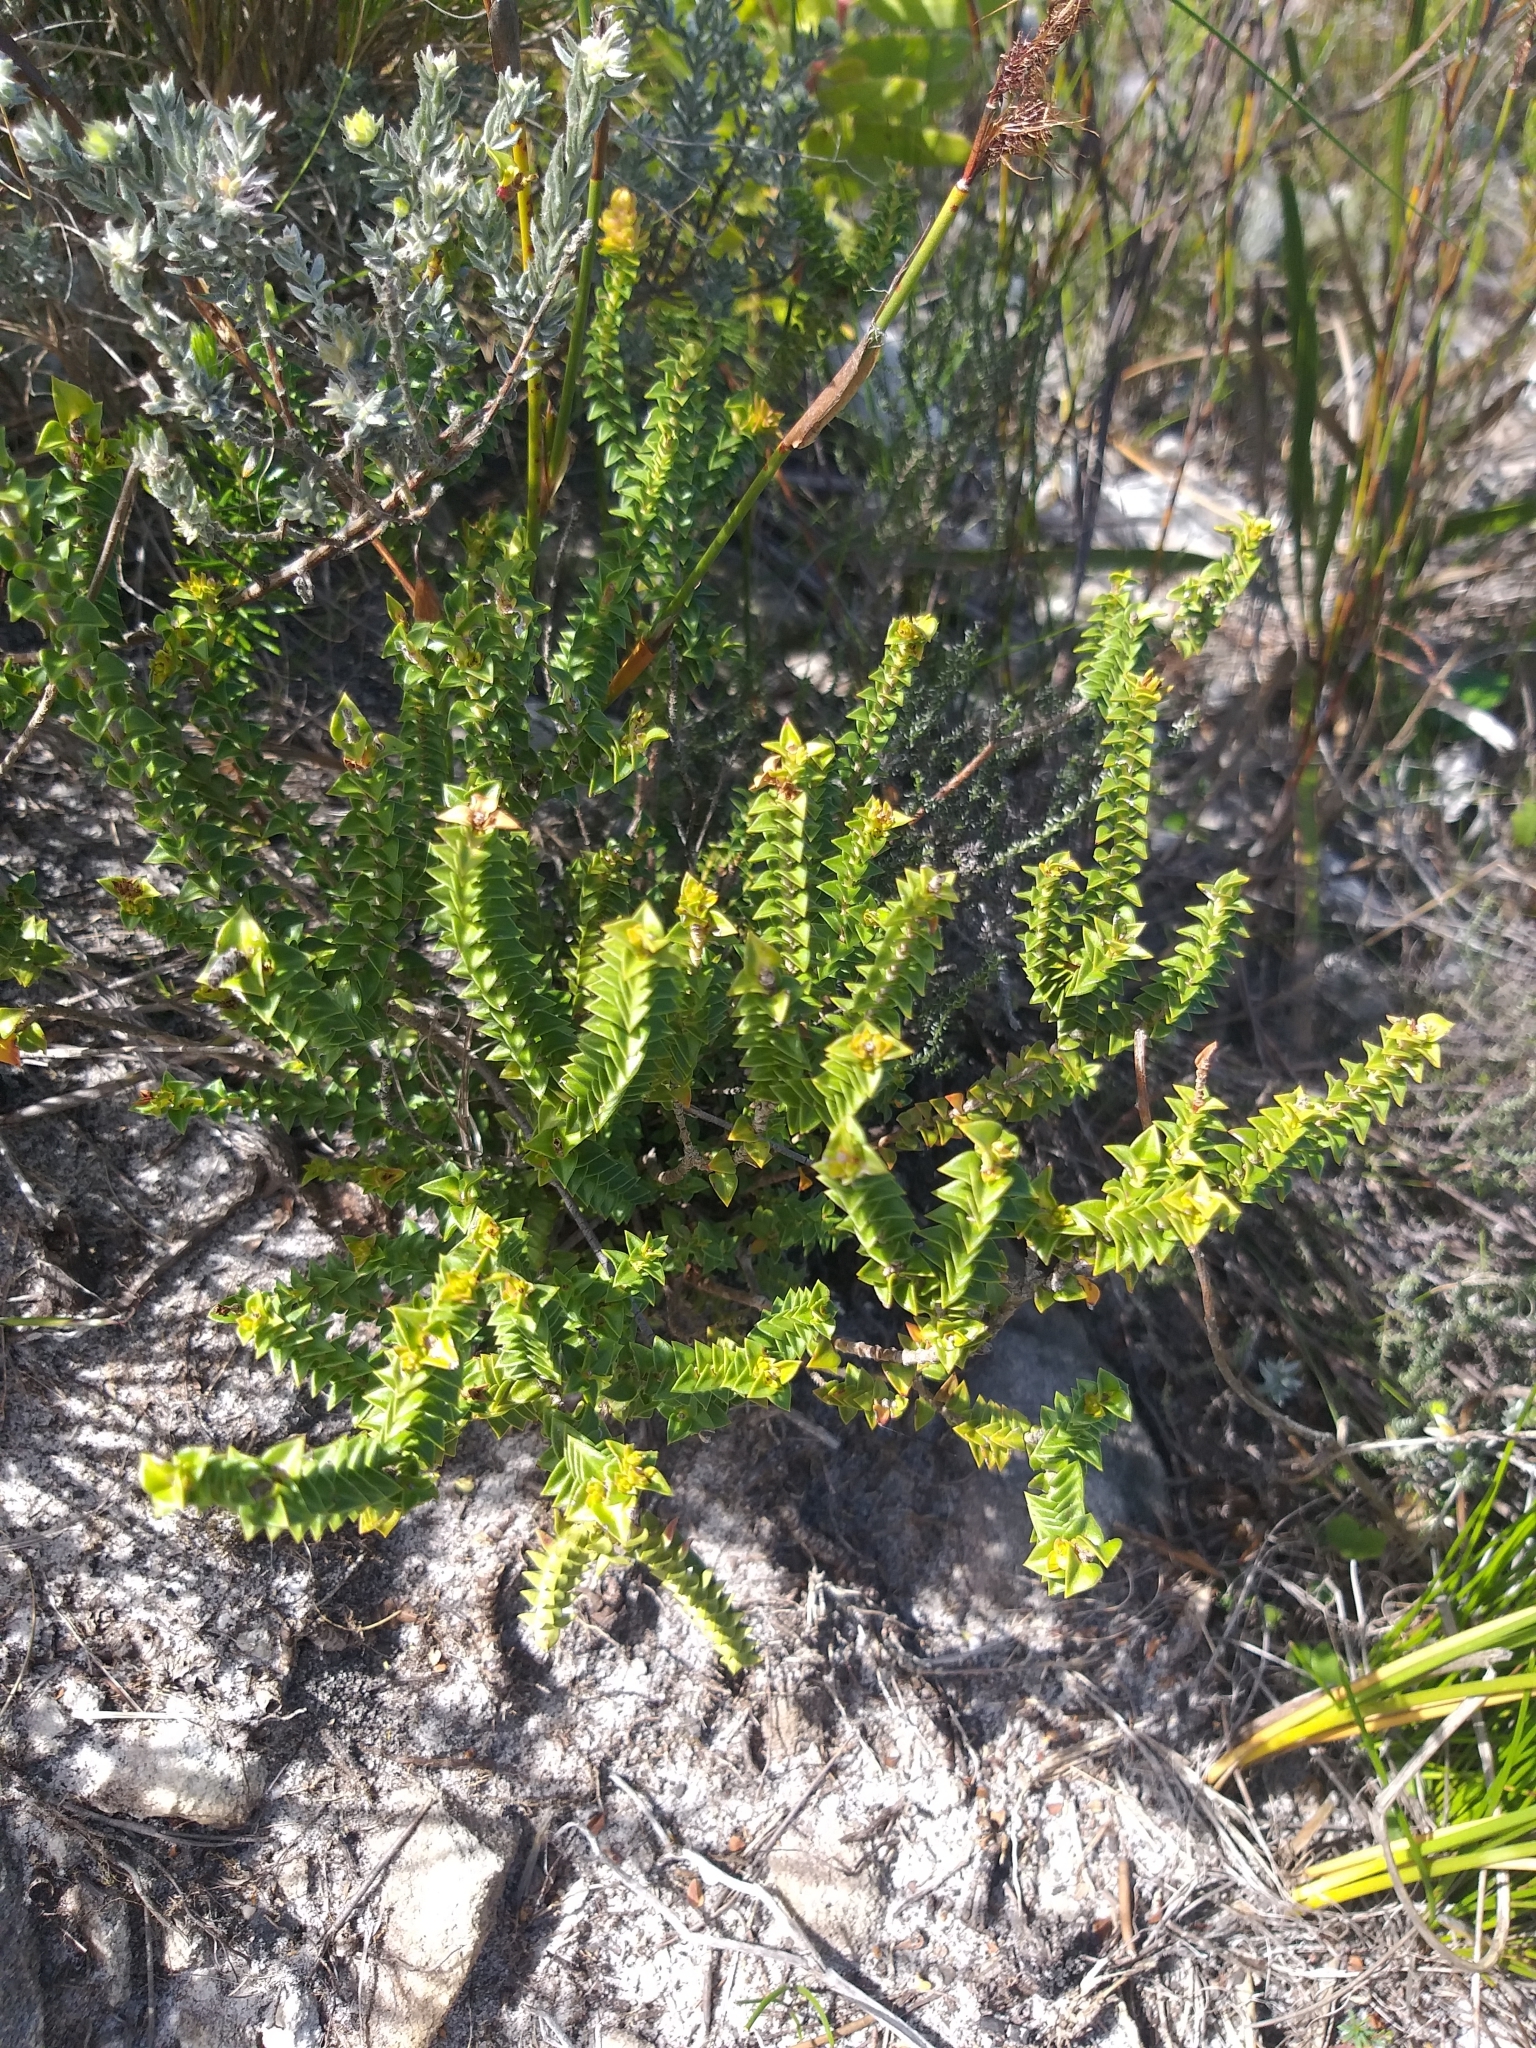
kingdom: Plantae
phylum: Tracheophyta
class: Magnoliopsida
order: Myrtales
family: Penaeaceae
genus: Penaea
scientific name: Penaea mucronata
